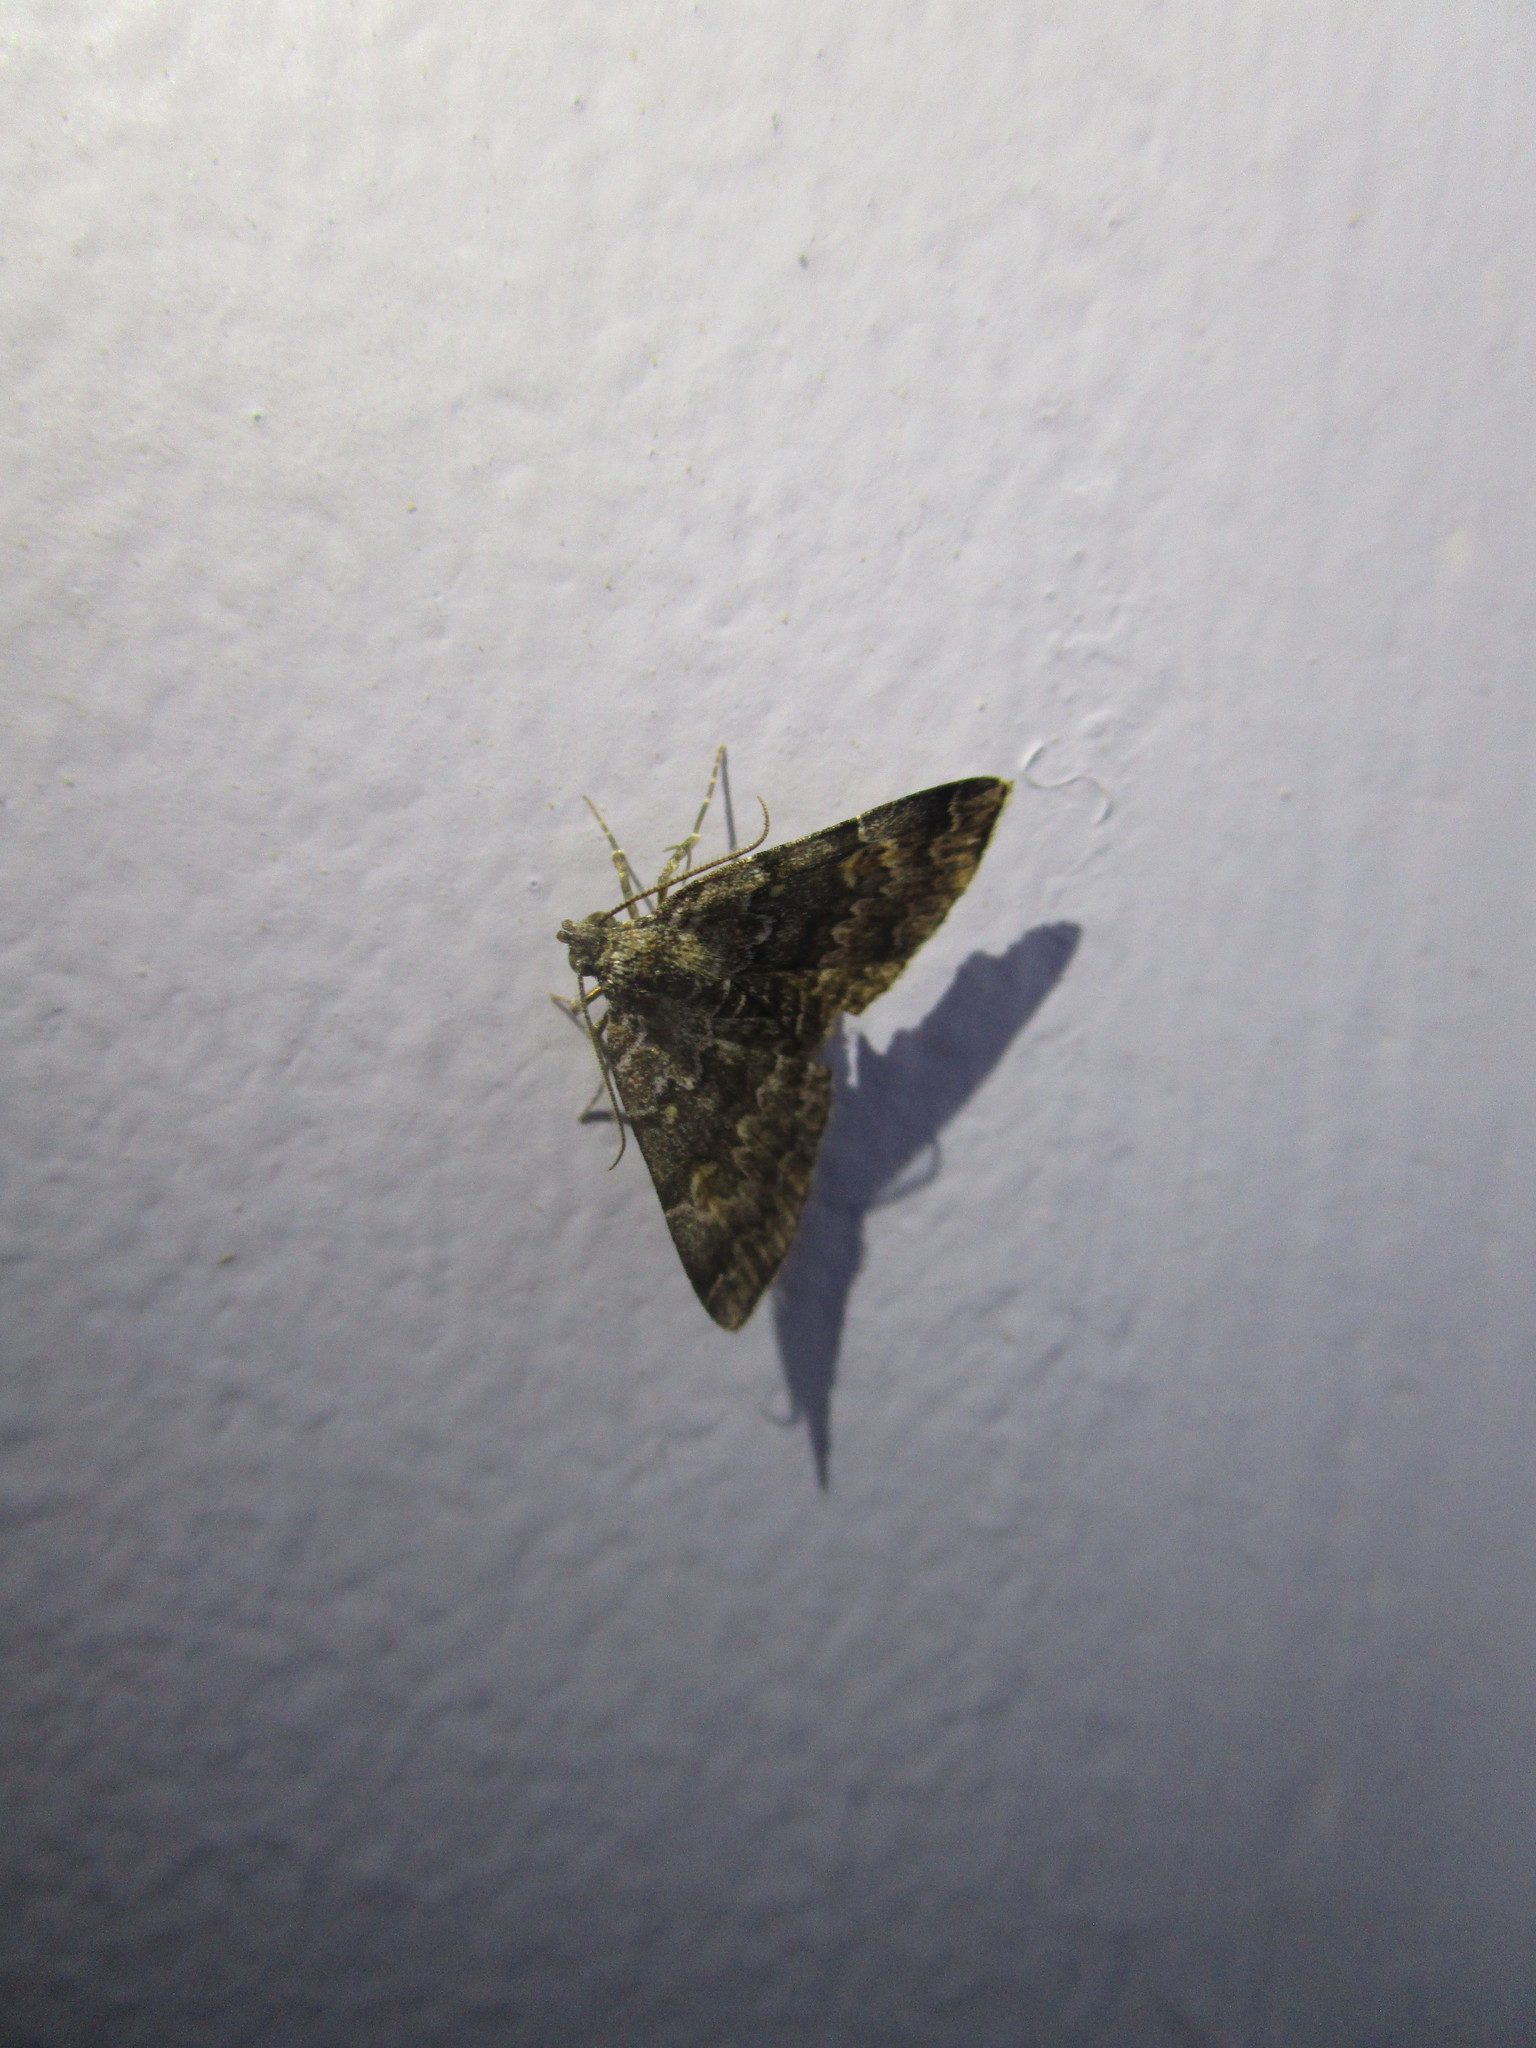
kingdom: Animalia
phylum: Arthropoda
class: Insecta
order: Lepidoptera
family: Erebidae
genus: Idia
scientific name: Idia americalis
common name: American idia moth
